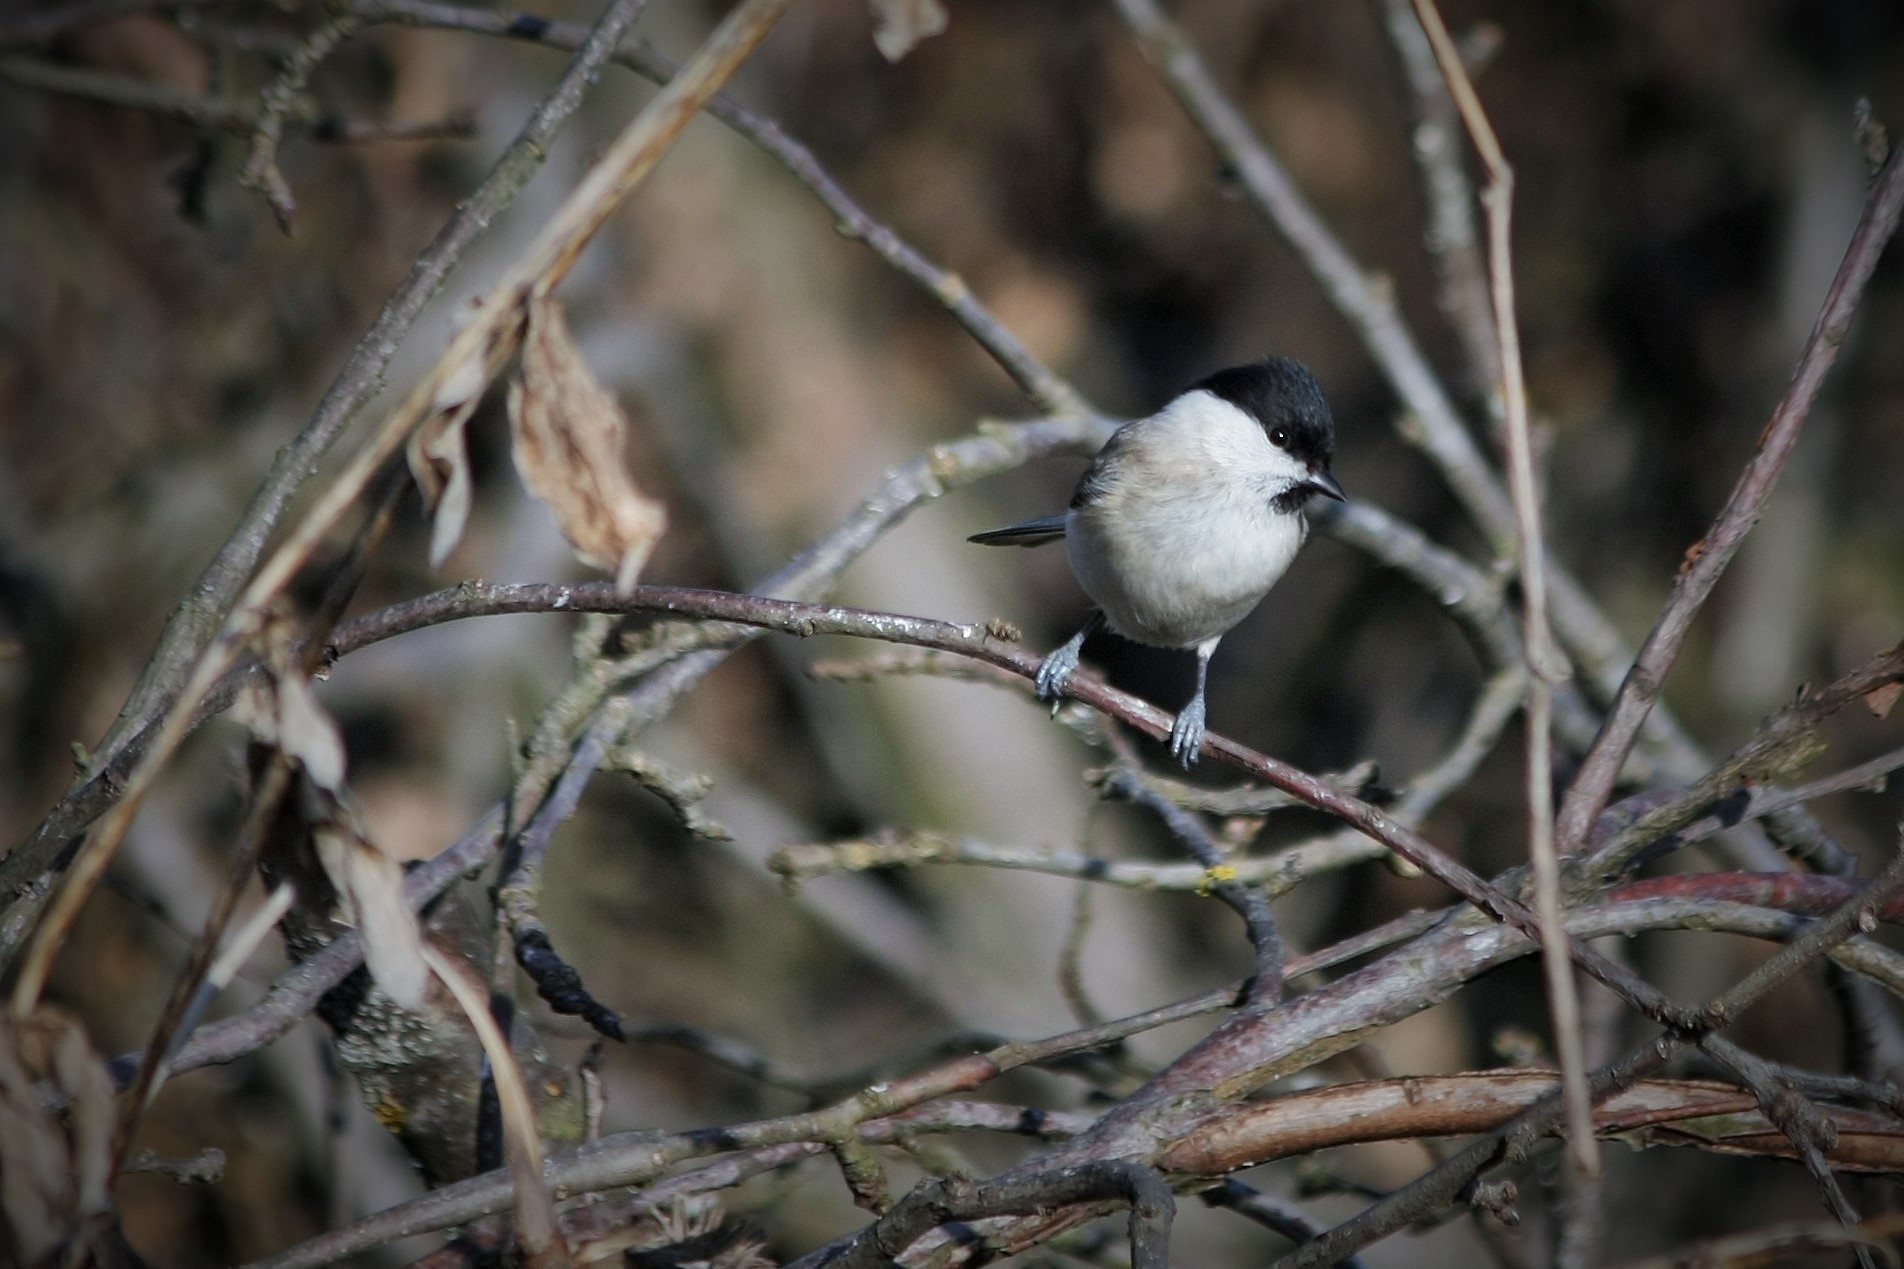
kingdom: Animalia
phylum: Chordata
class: Aves
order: Passeriformes
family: Paridae
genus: Poecile
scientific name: Poecile palustris
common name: Marsh tit
